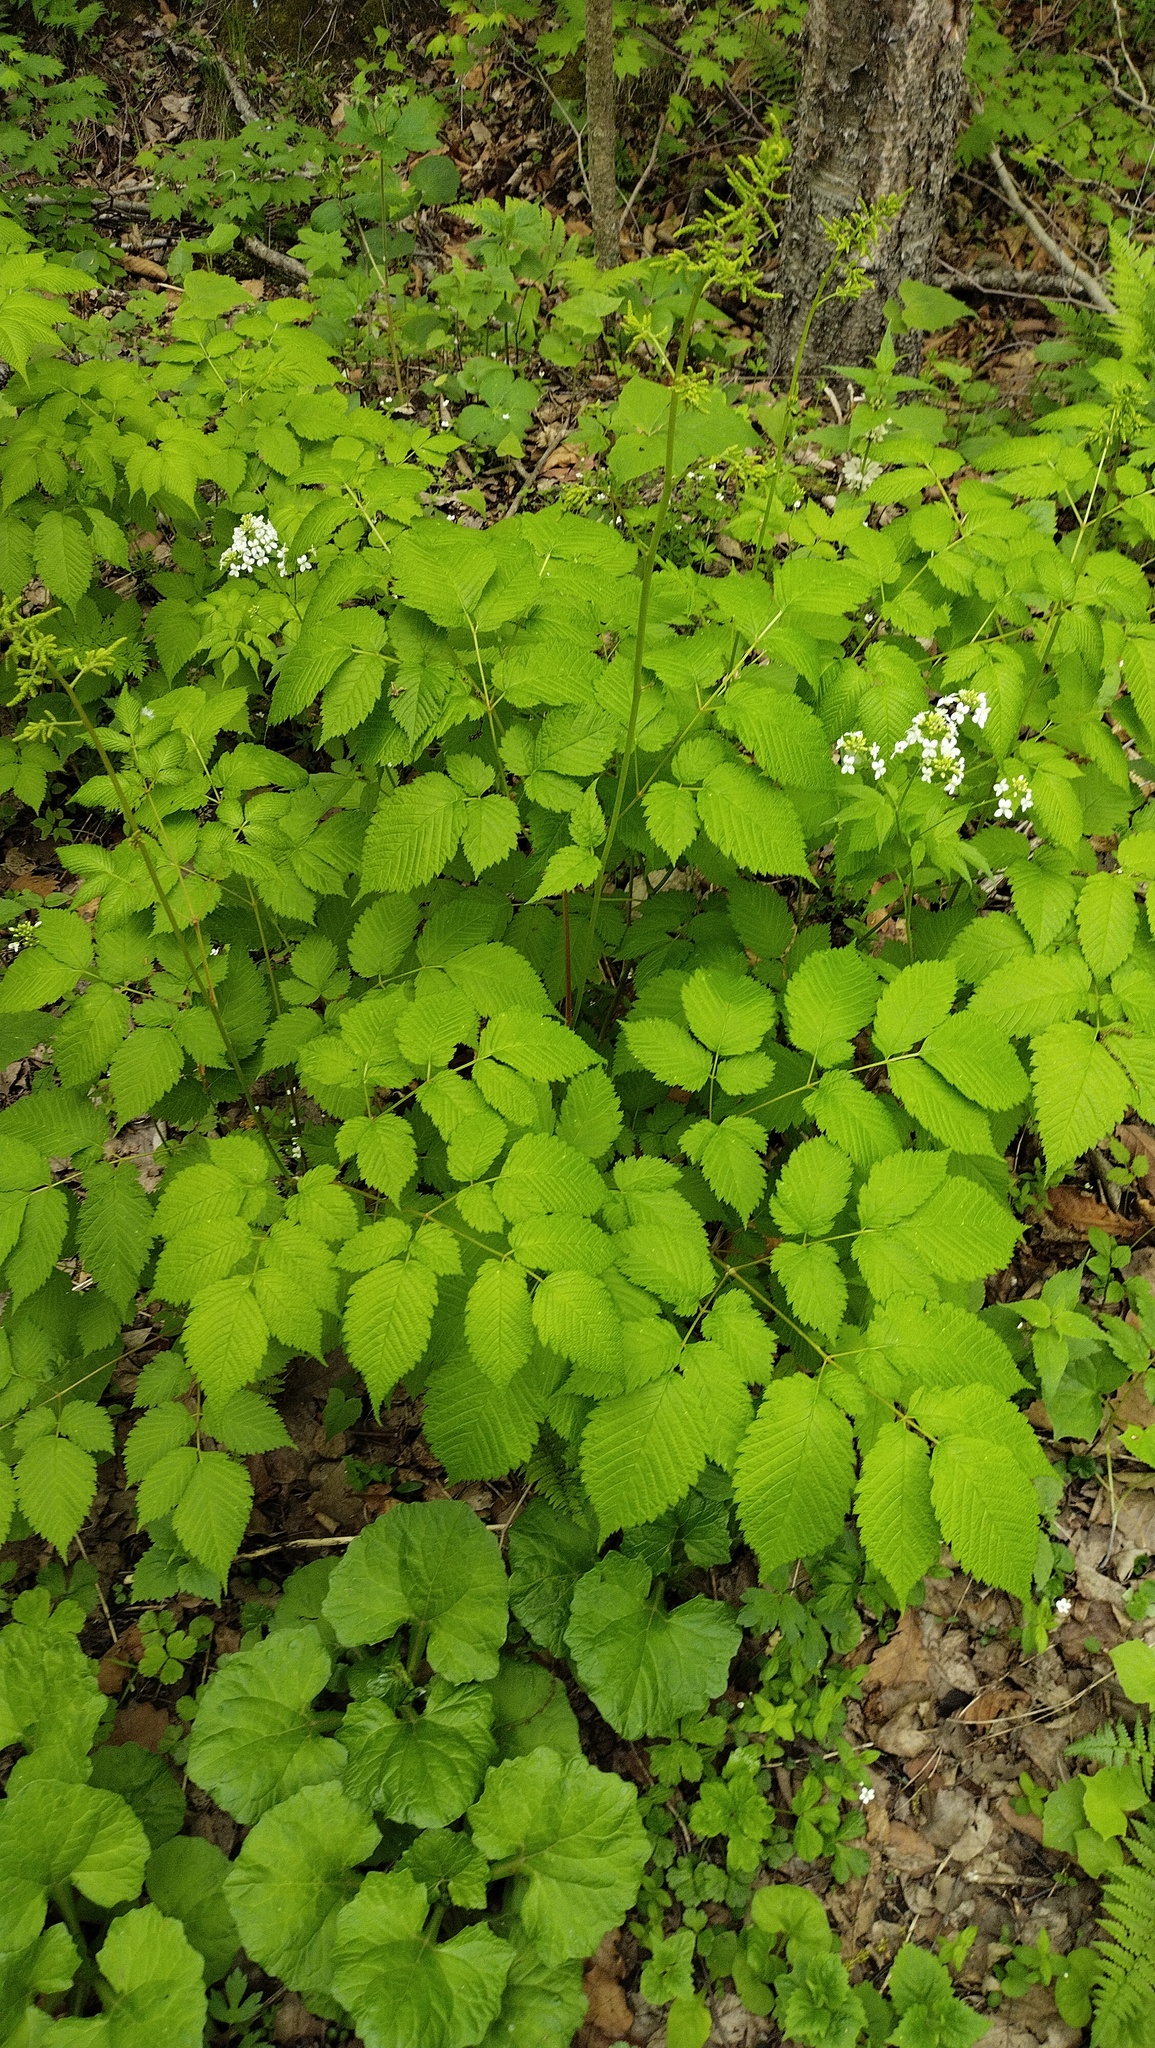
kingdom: Plantae
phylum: Tracheophyta
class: Magnoliopsida
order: Rosales
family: Rosaceae
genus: Aruncus
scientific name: Aruncus dioicus
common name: Buck's-beard
